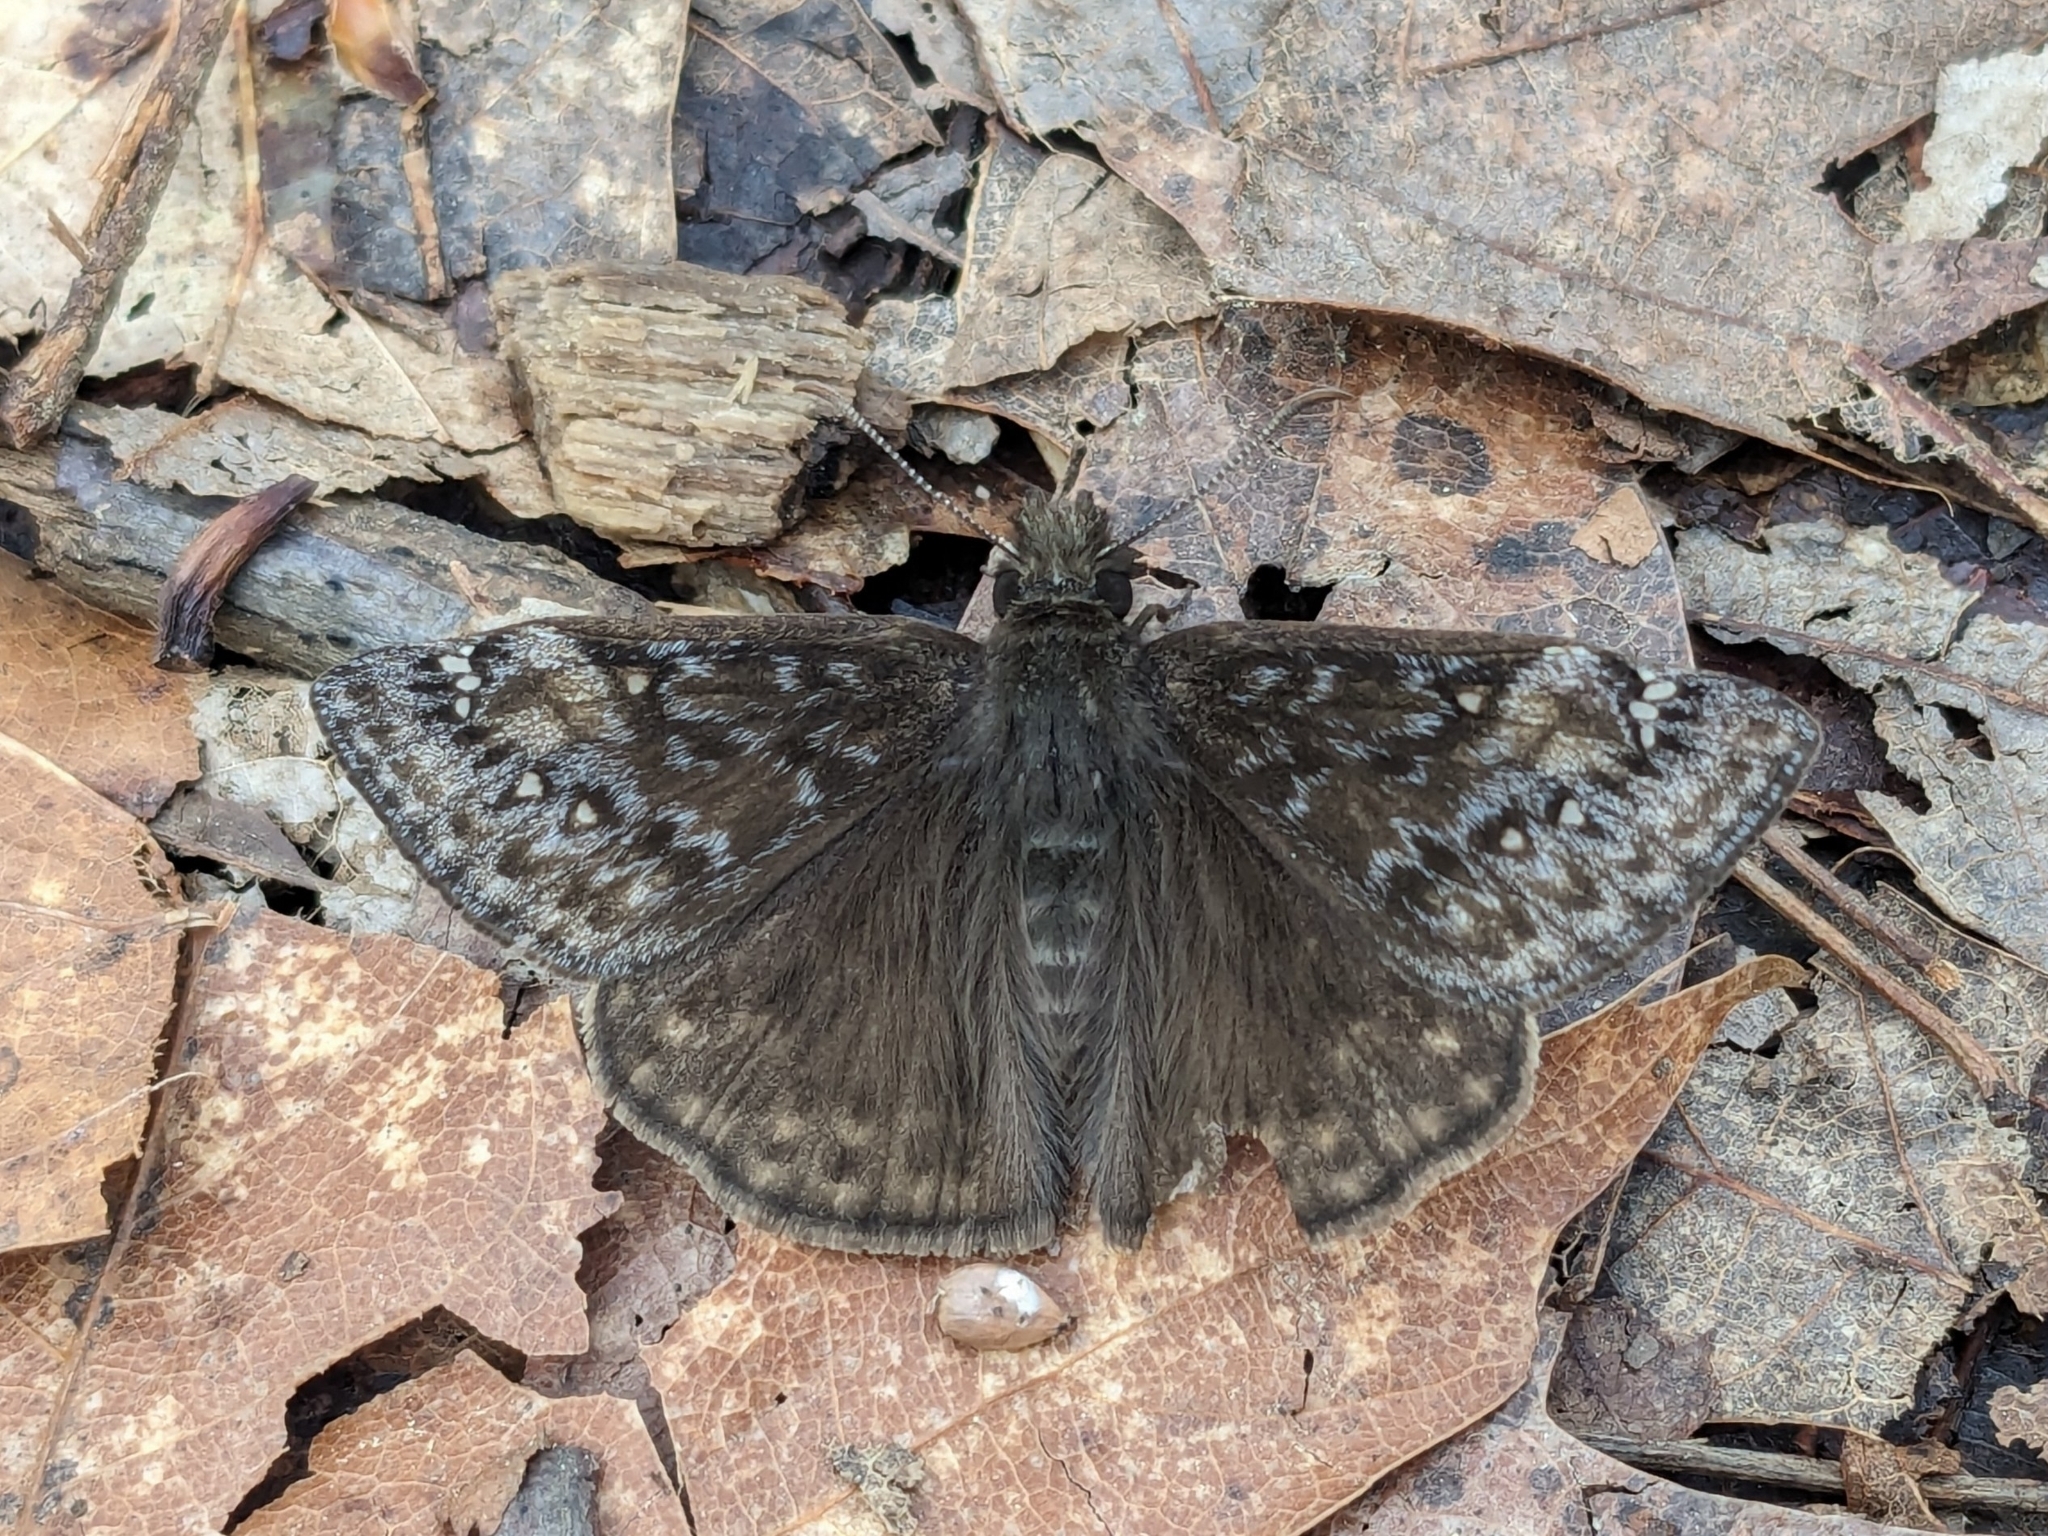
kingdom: Animalia
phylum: Arthropoda
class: Insecta
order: Lepidoptera
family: Hesperiidae
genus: Erynnis
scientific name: Erynnis juvenalis
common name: Juvenal's duskywing
